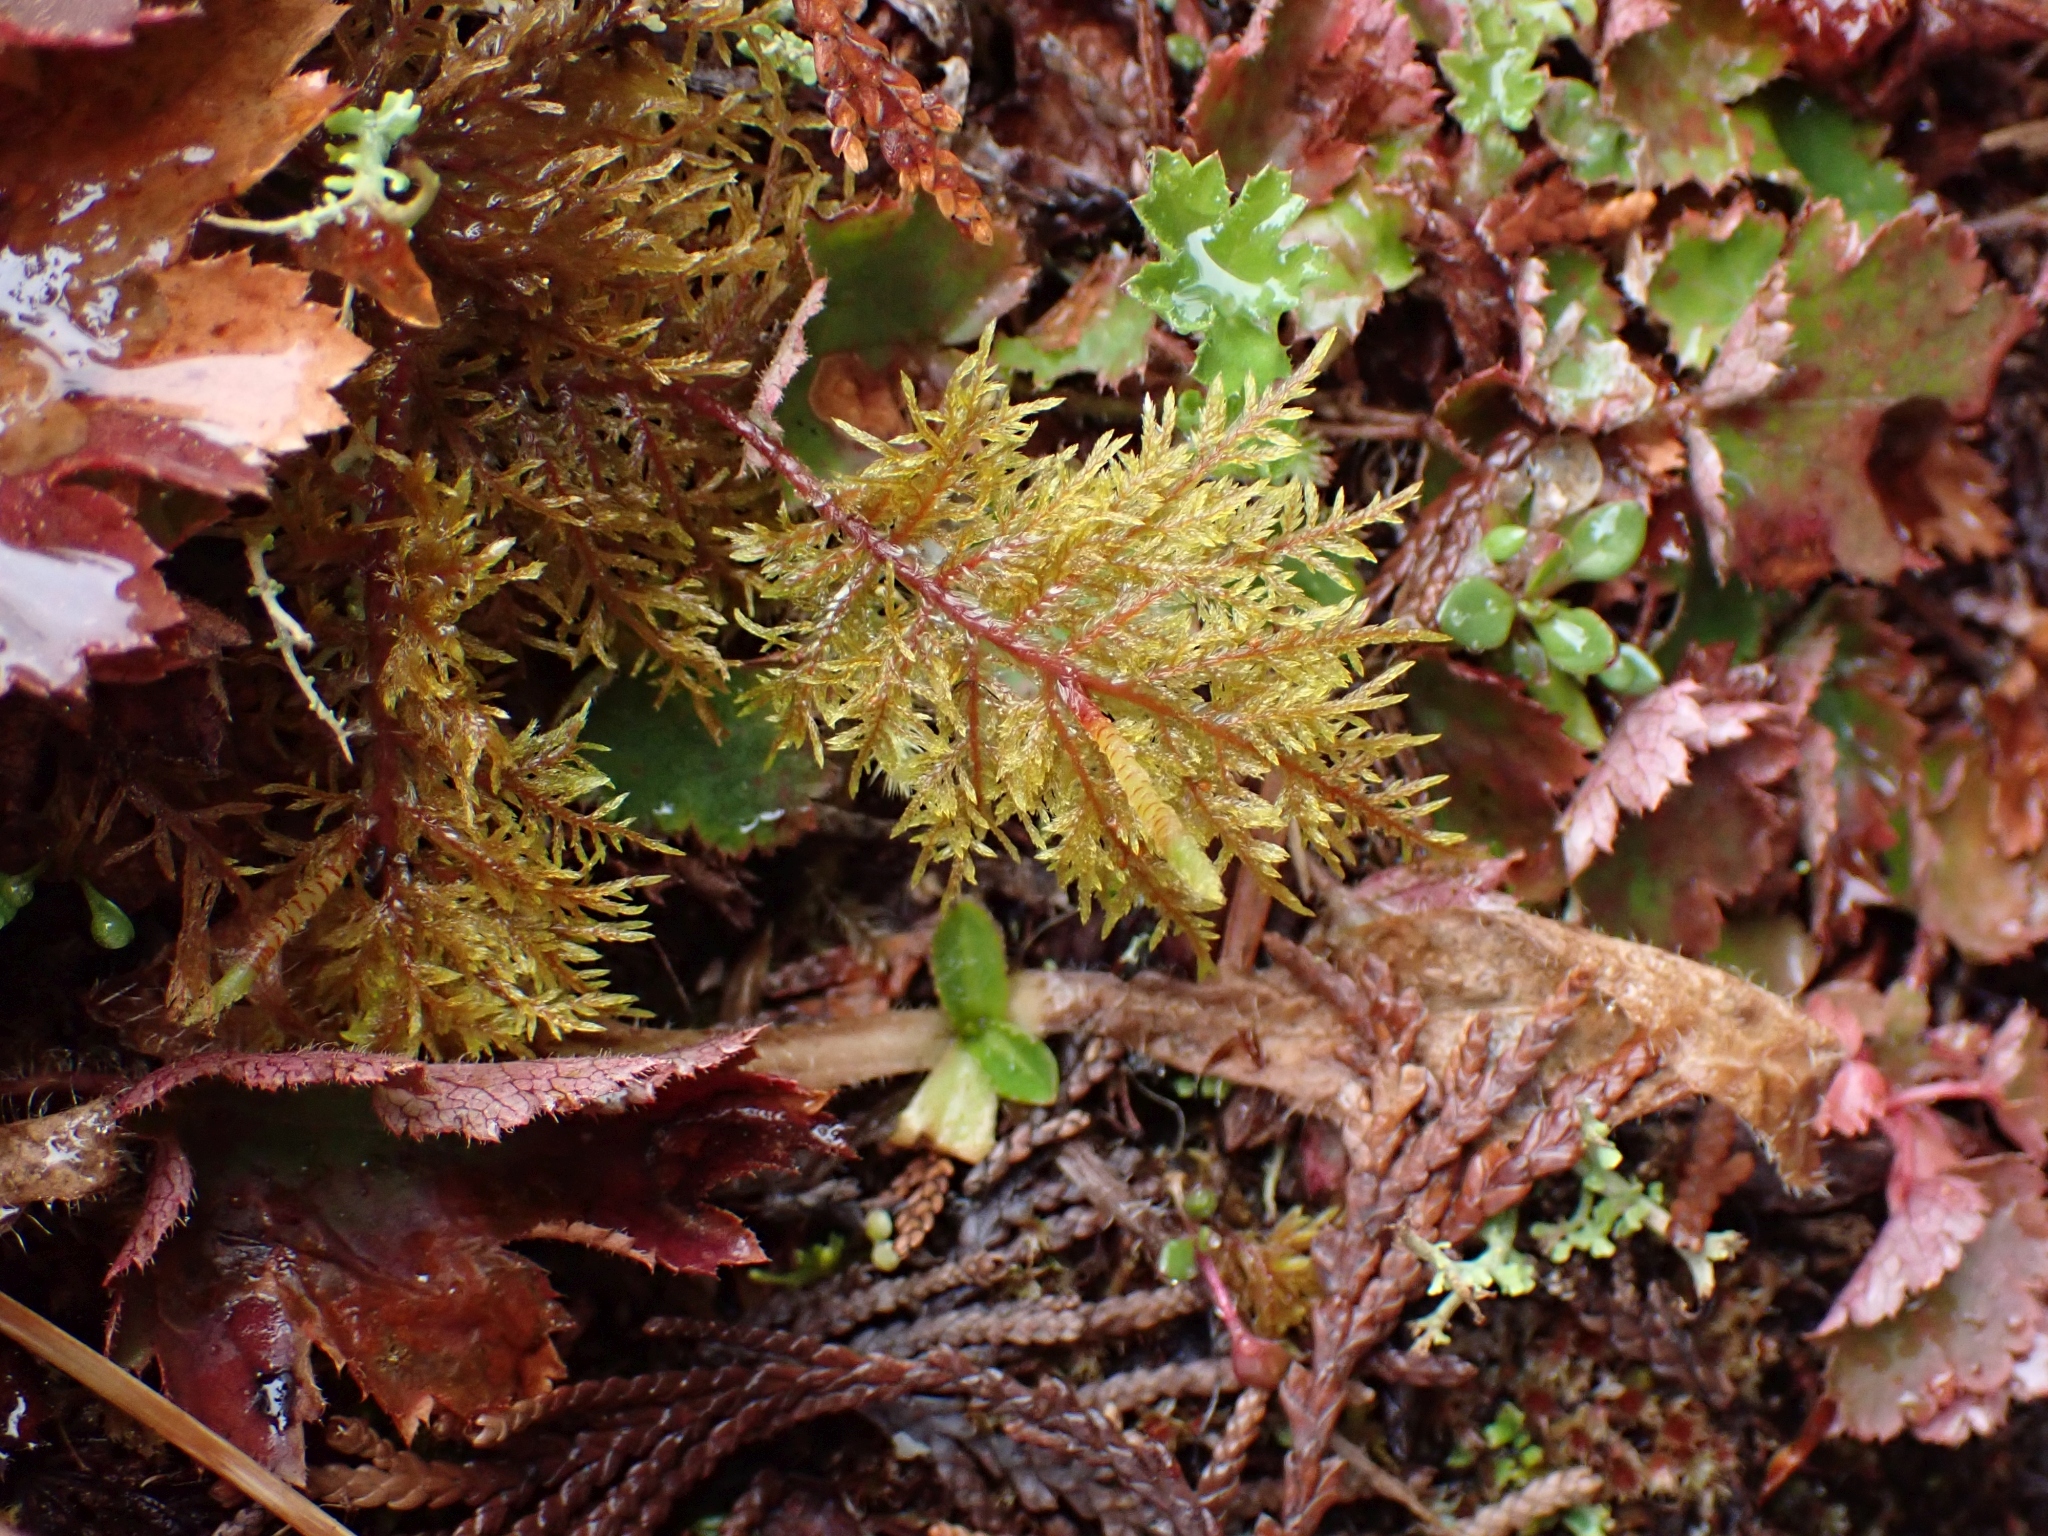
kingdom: Plantae
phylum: Bryophyta
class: Bryopsida
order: Hypnales
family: Hylocomiaceae
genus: Hylocomium
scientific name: Hylocomium splendens
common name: Stairstep moss
